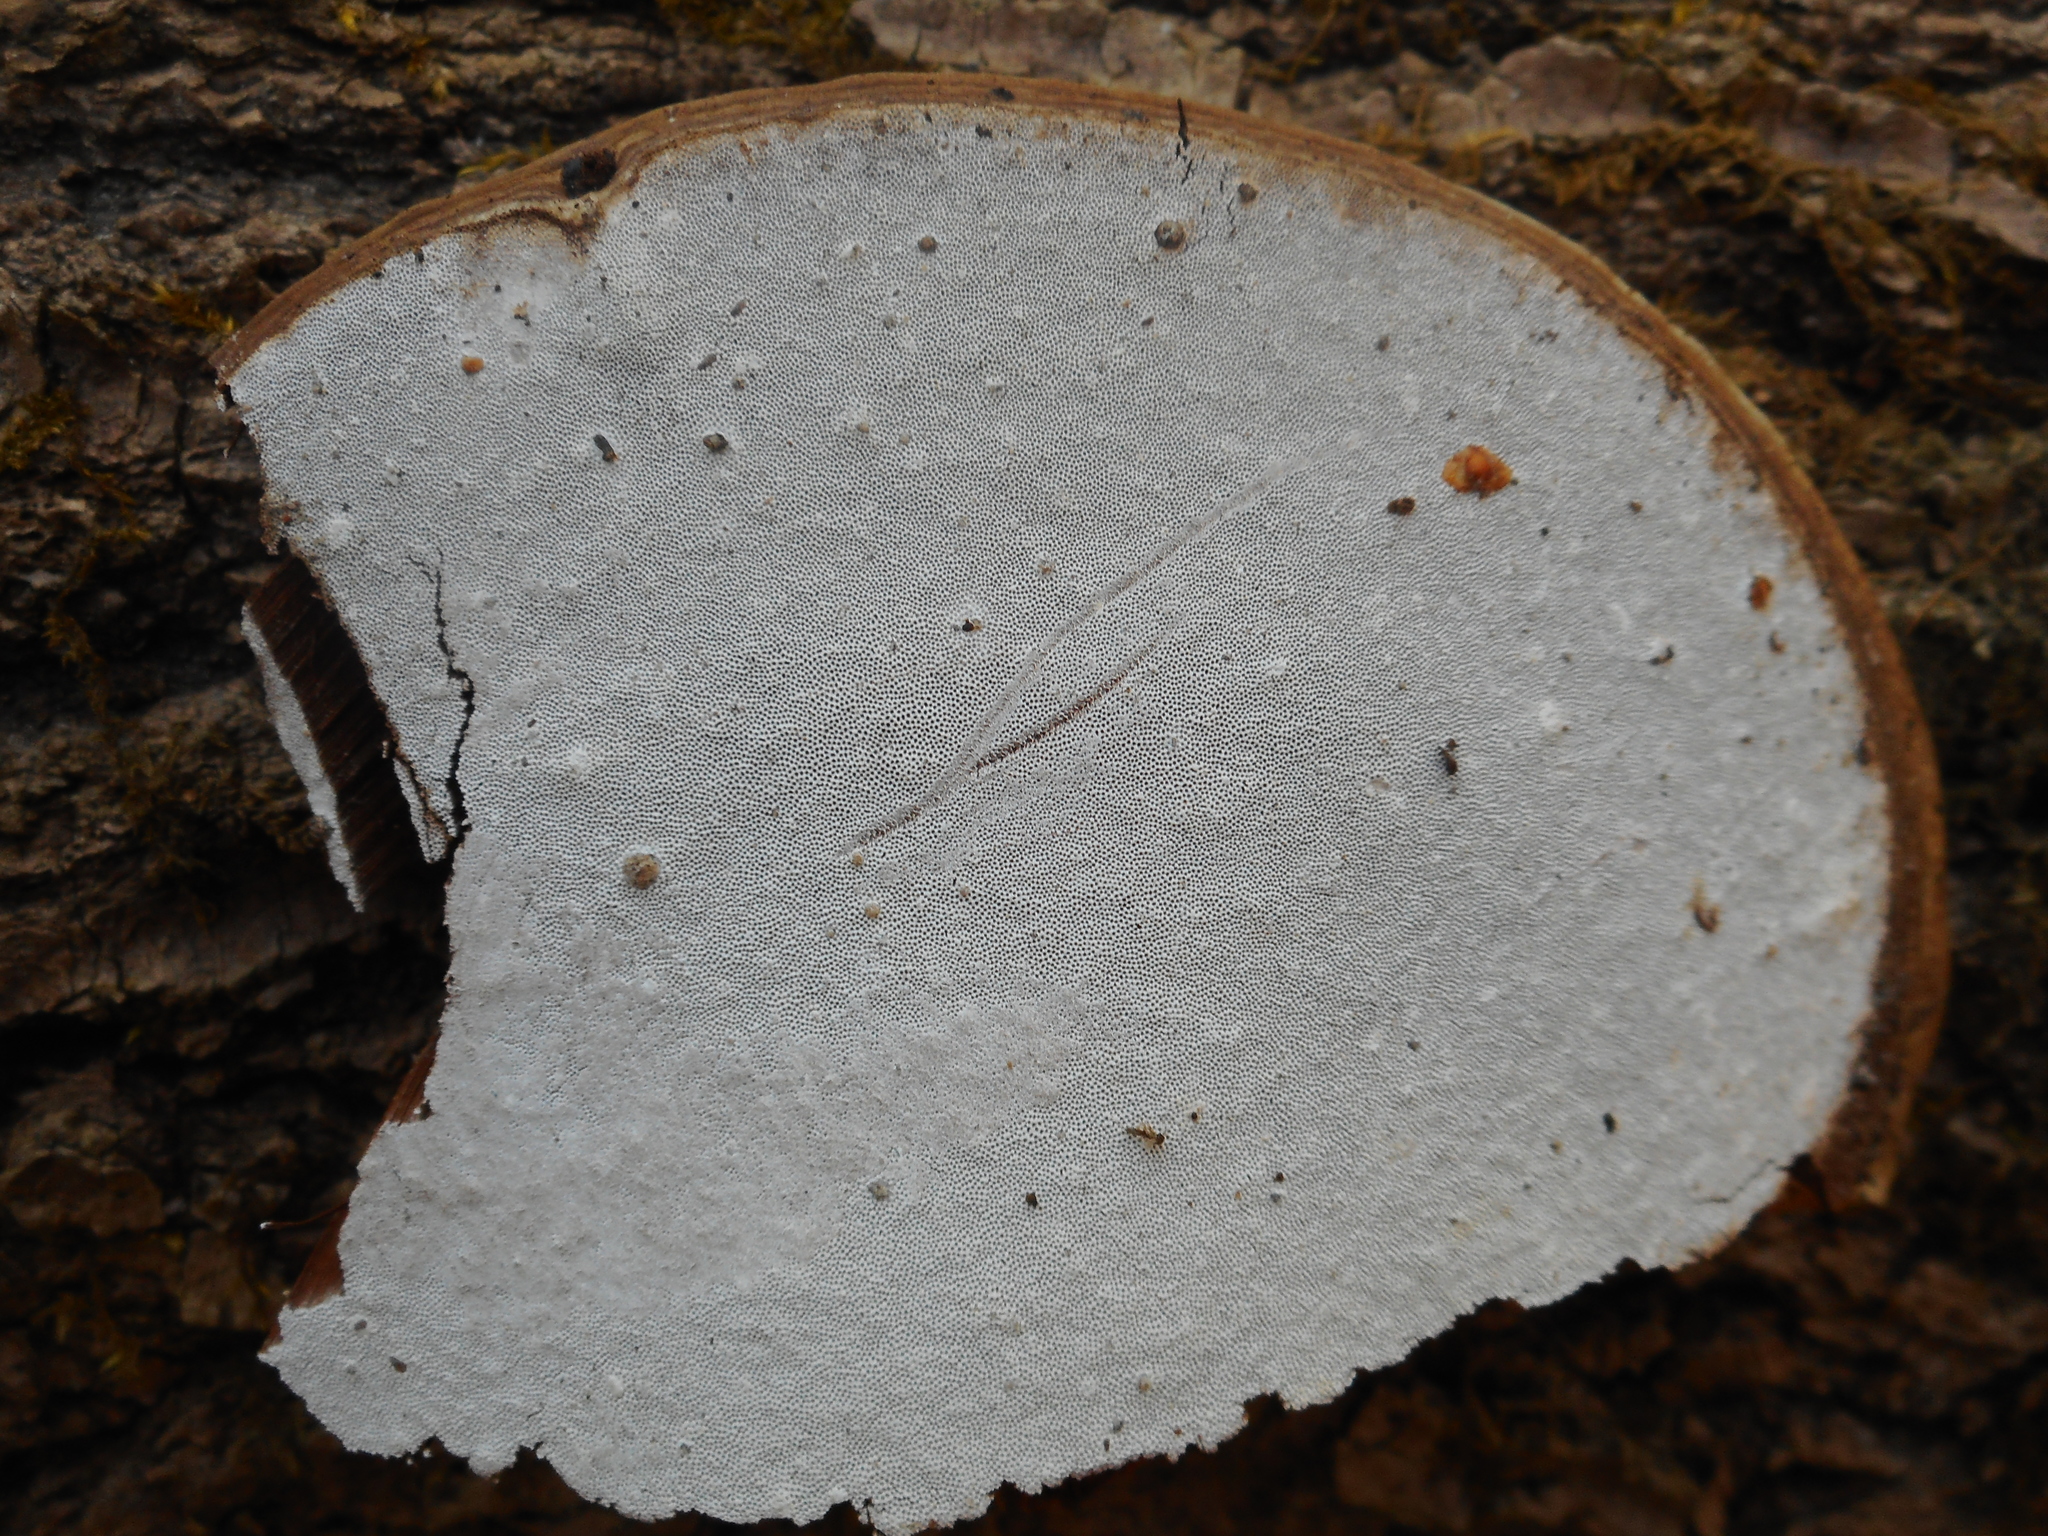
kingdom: Fungi
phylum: Basidiomycota
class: Agaricomycetes
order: Polyporales
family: Polyporaceae
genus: Ganoderma
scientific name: Ganoderma applanatum
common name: Artist's bracket
